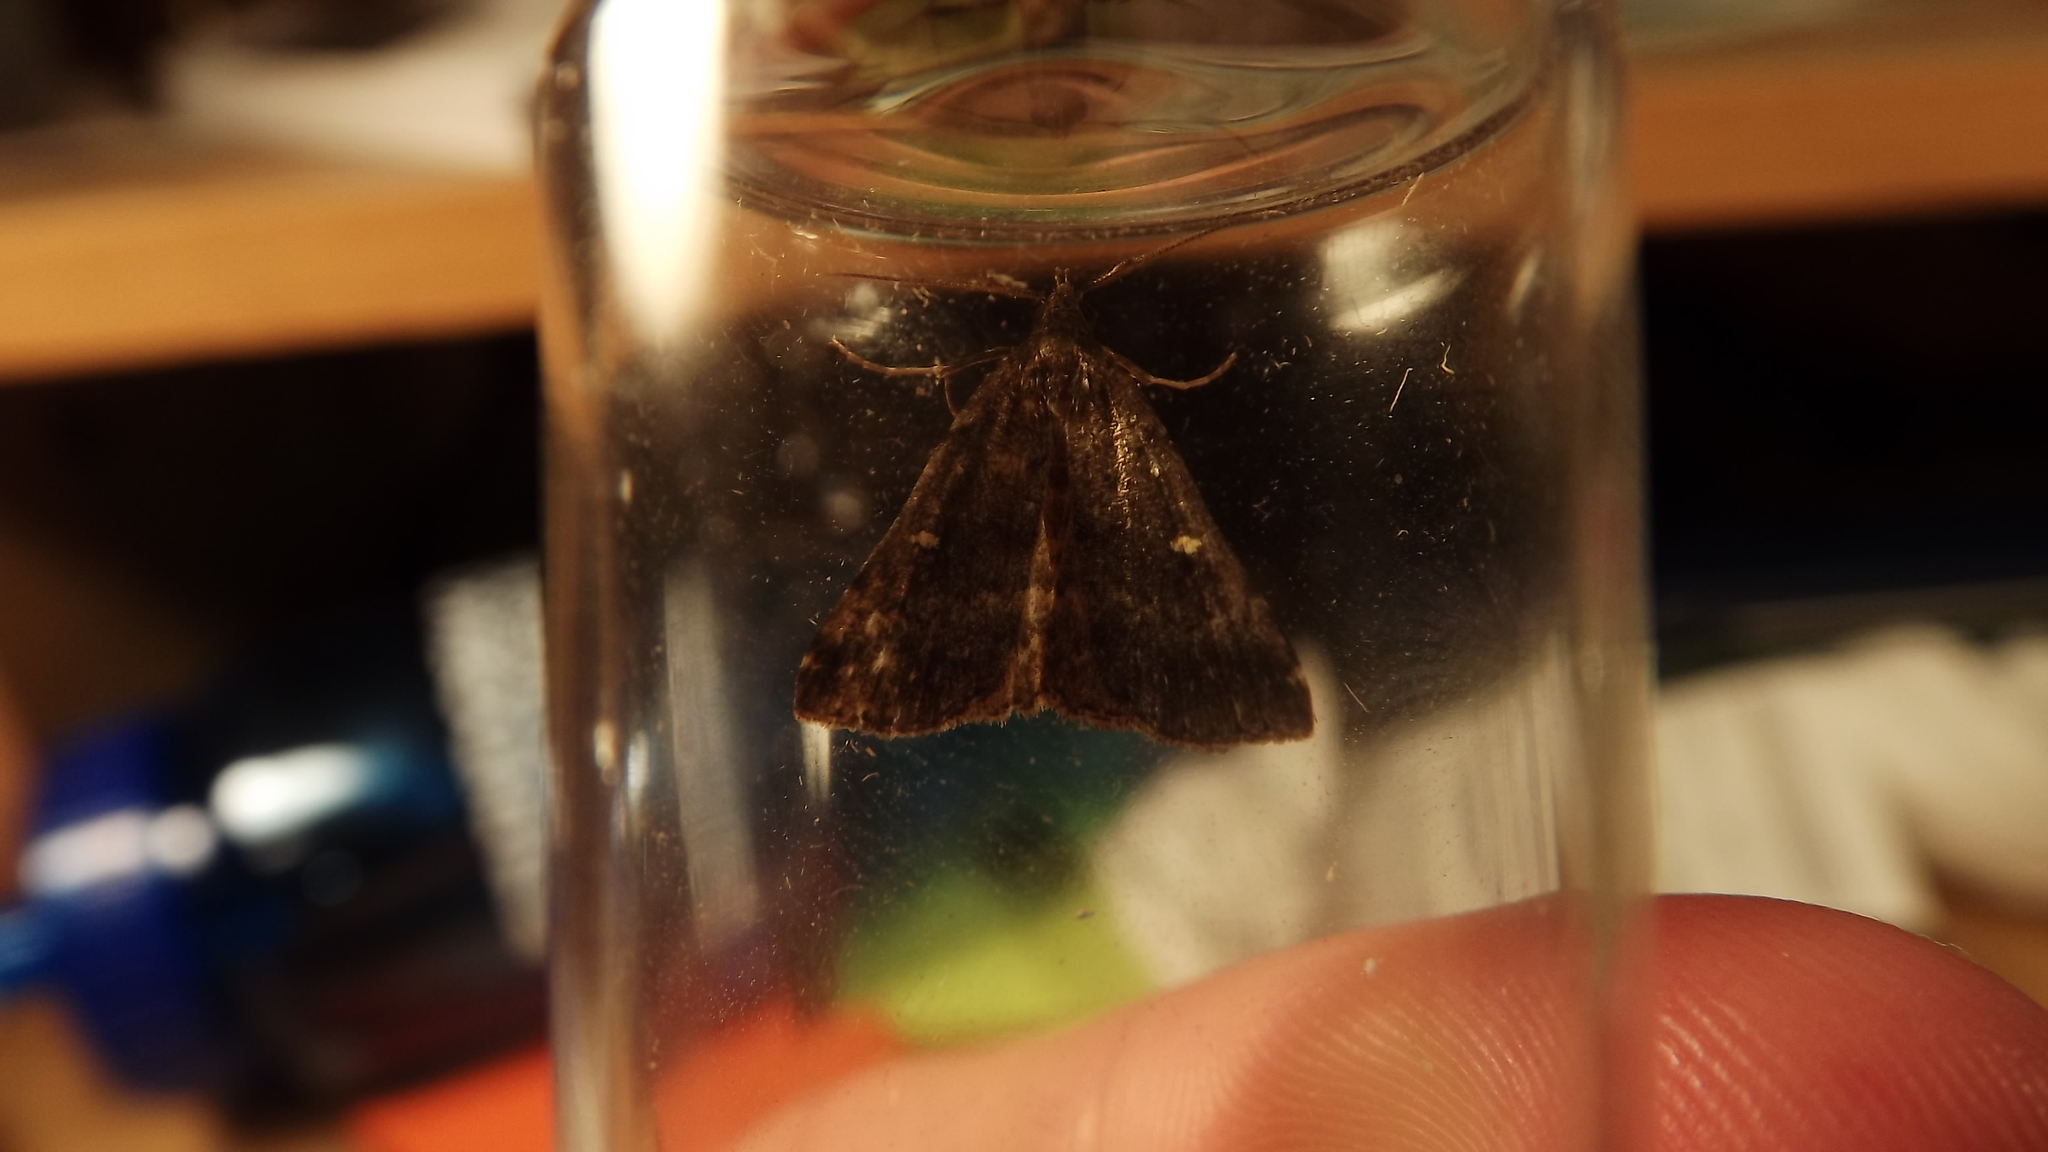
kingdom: Animalia
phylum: Arthropoda
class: Insecta
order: Lepidoptera
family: Erebidae
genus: Tetanolita
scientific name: Tetanolita mynesalis
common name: Smoky tetanolita moth
